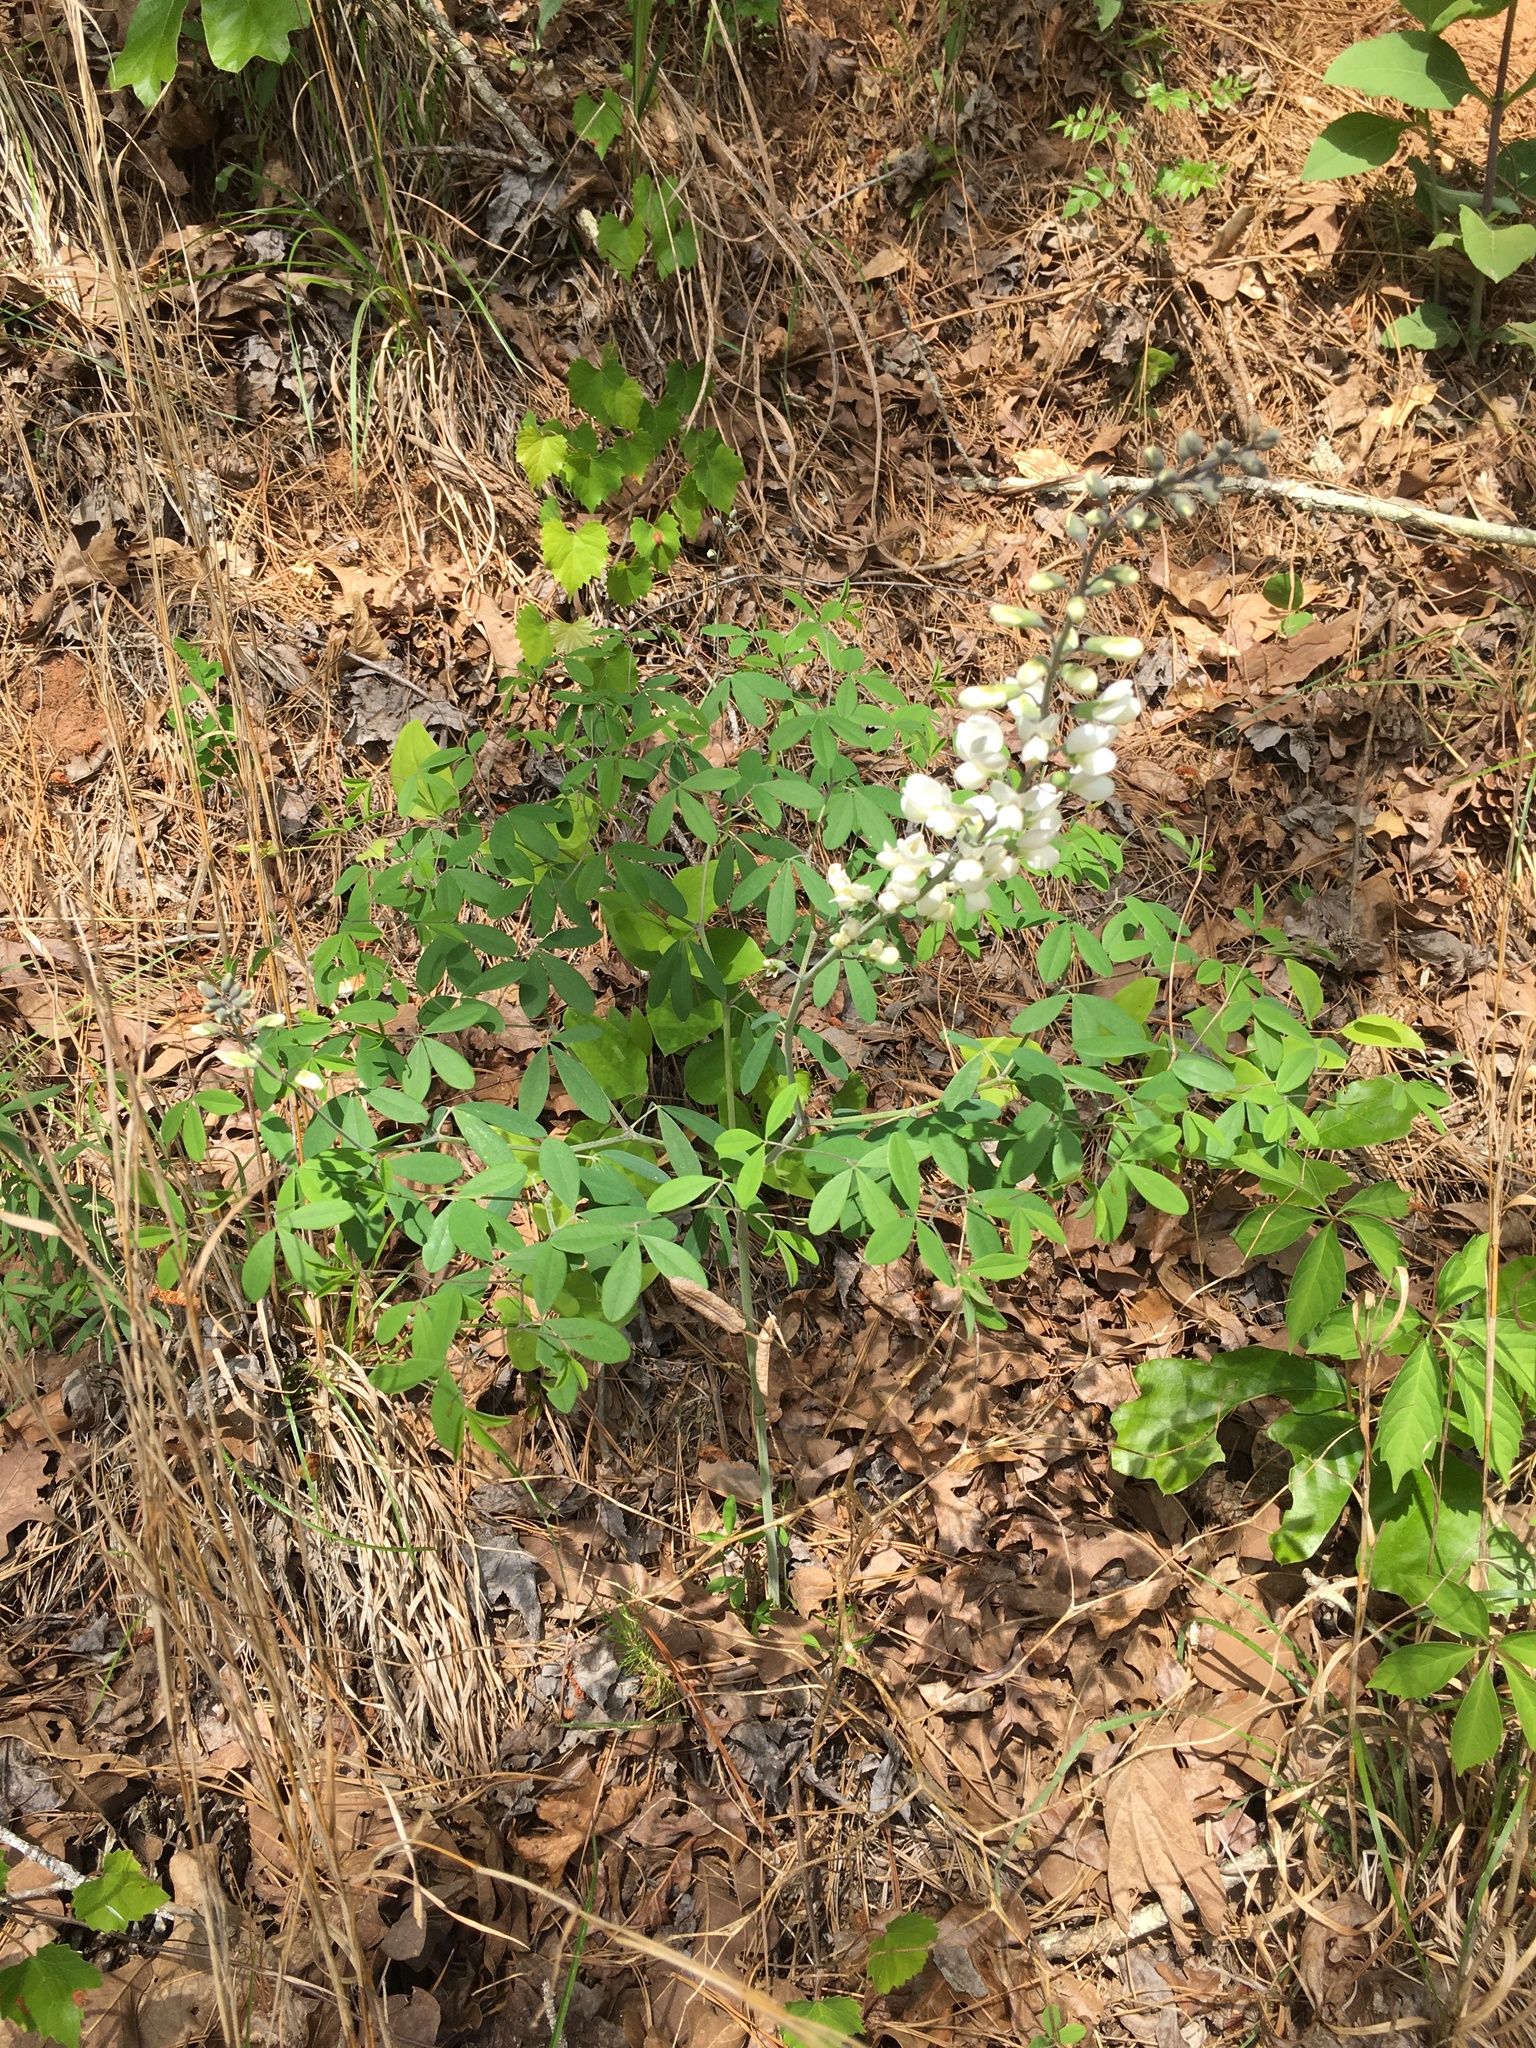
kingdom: Plantae
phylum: Tracheophyta
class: Magnoliopsida
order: Fabales
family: Fabaceae
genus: Baptisia
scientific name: Baptisia albescens
